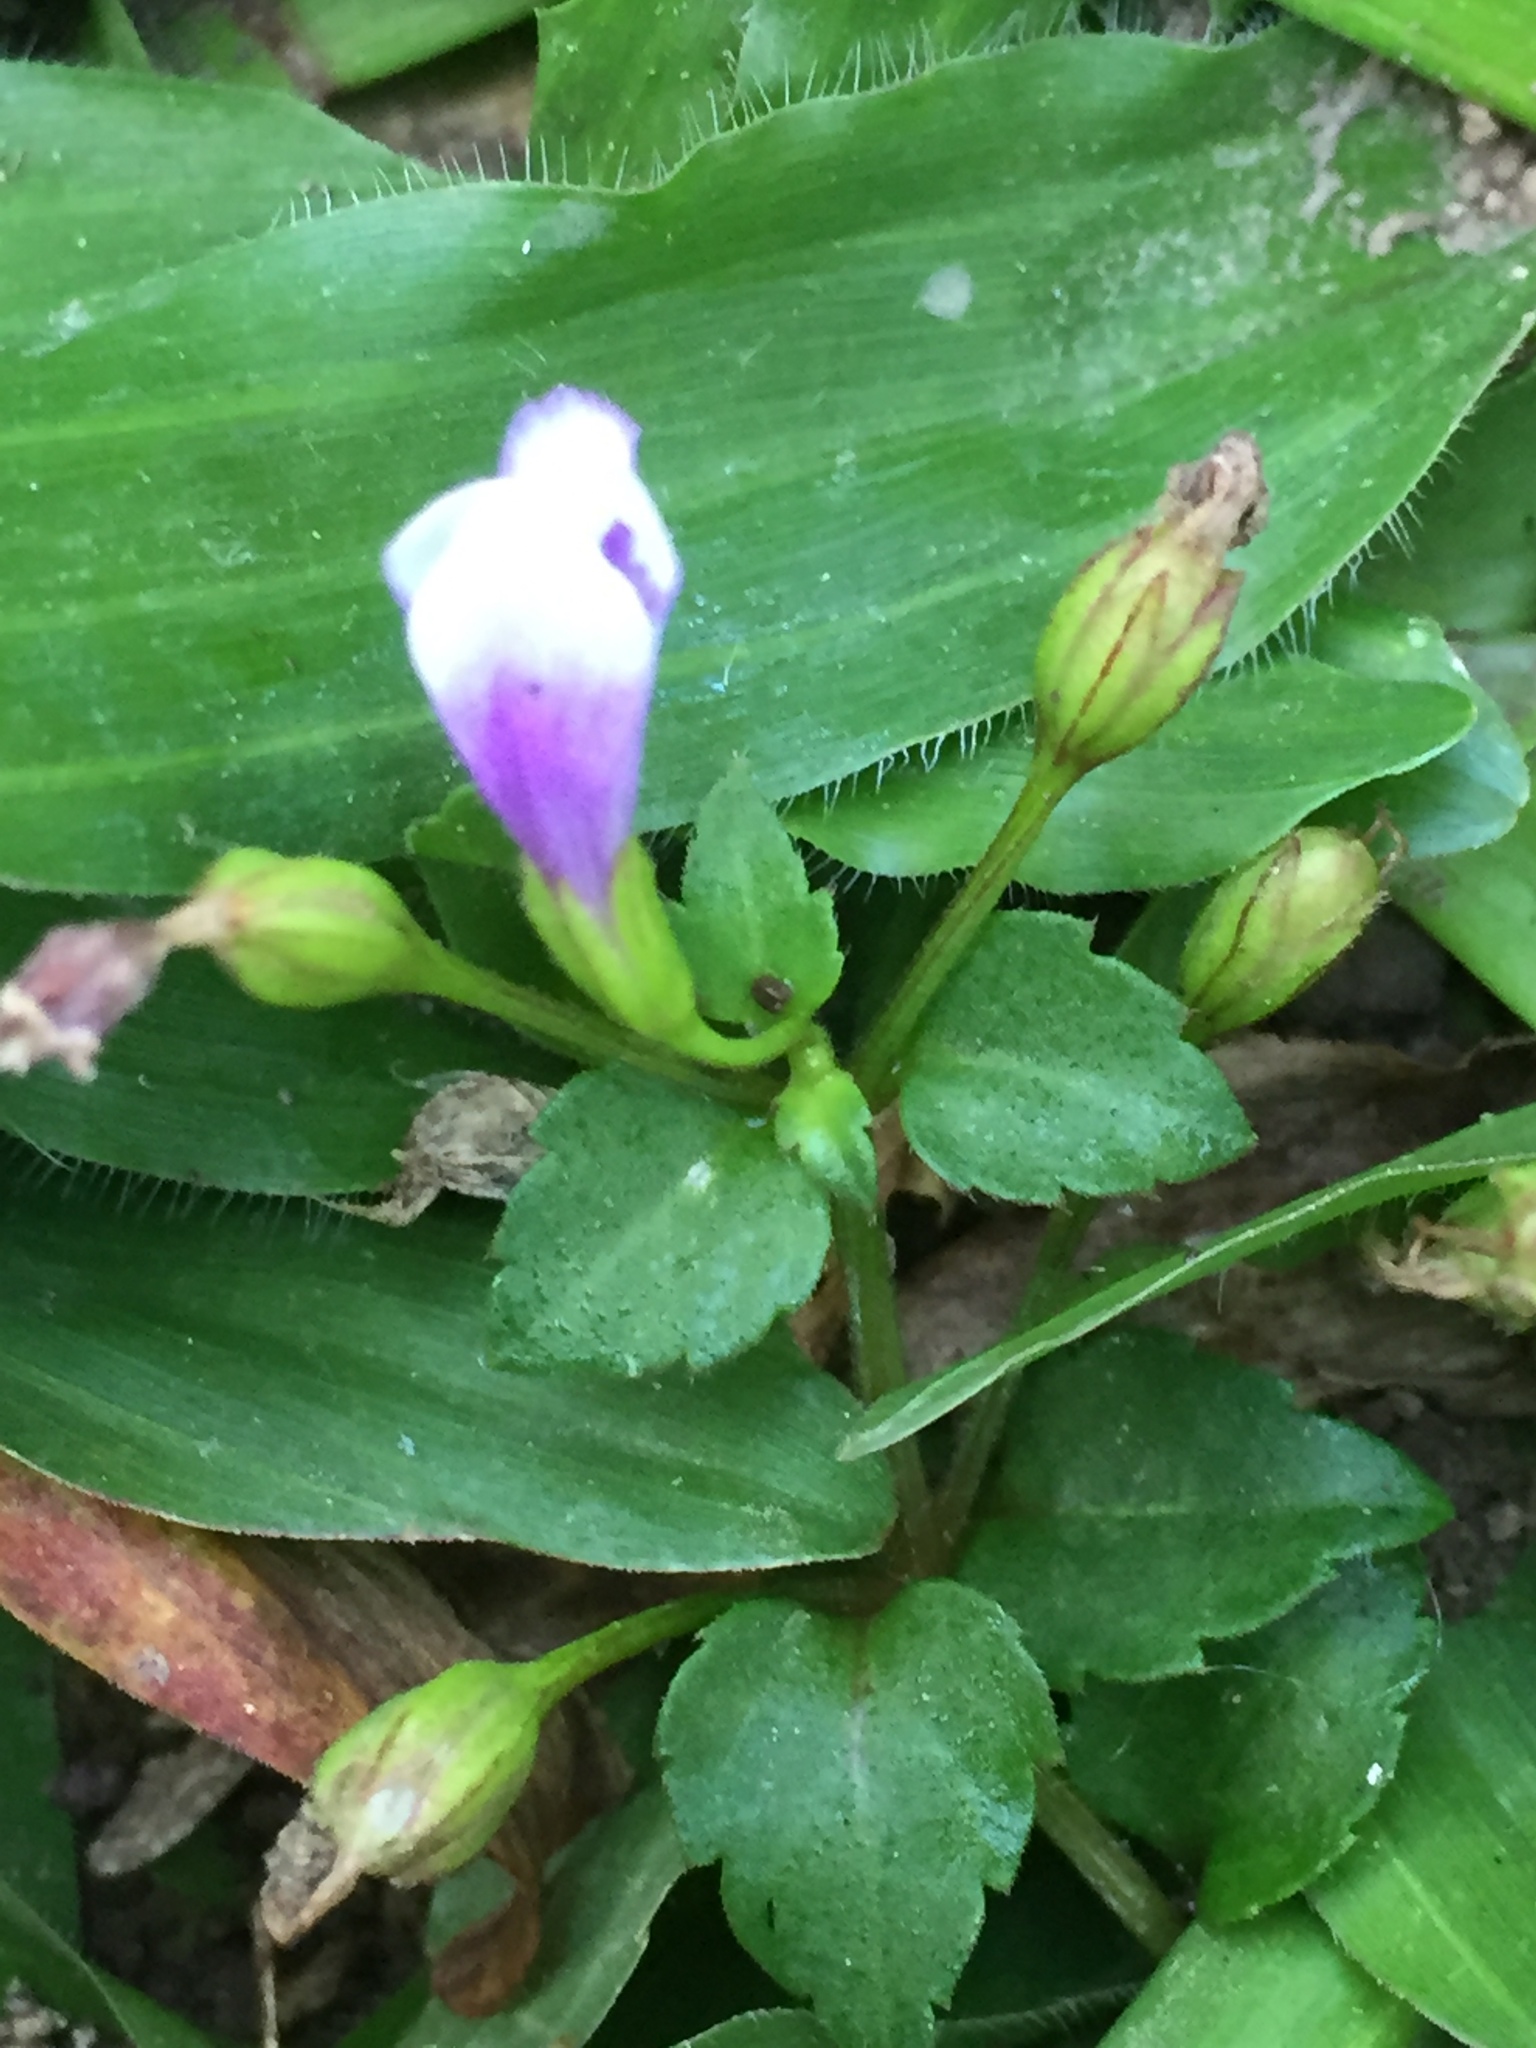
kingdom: Plantae
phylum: Tracheophyta
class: Magnoliopsida
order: Lamiales
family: Linderniaceae
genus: Torenia
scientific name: Torenia crustacea
